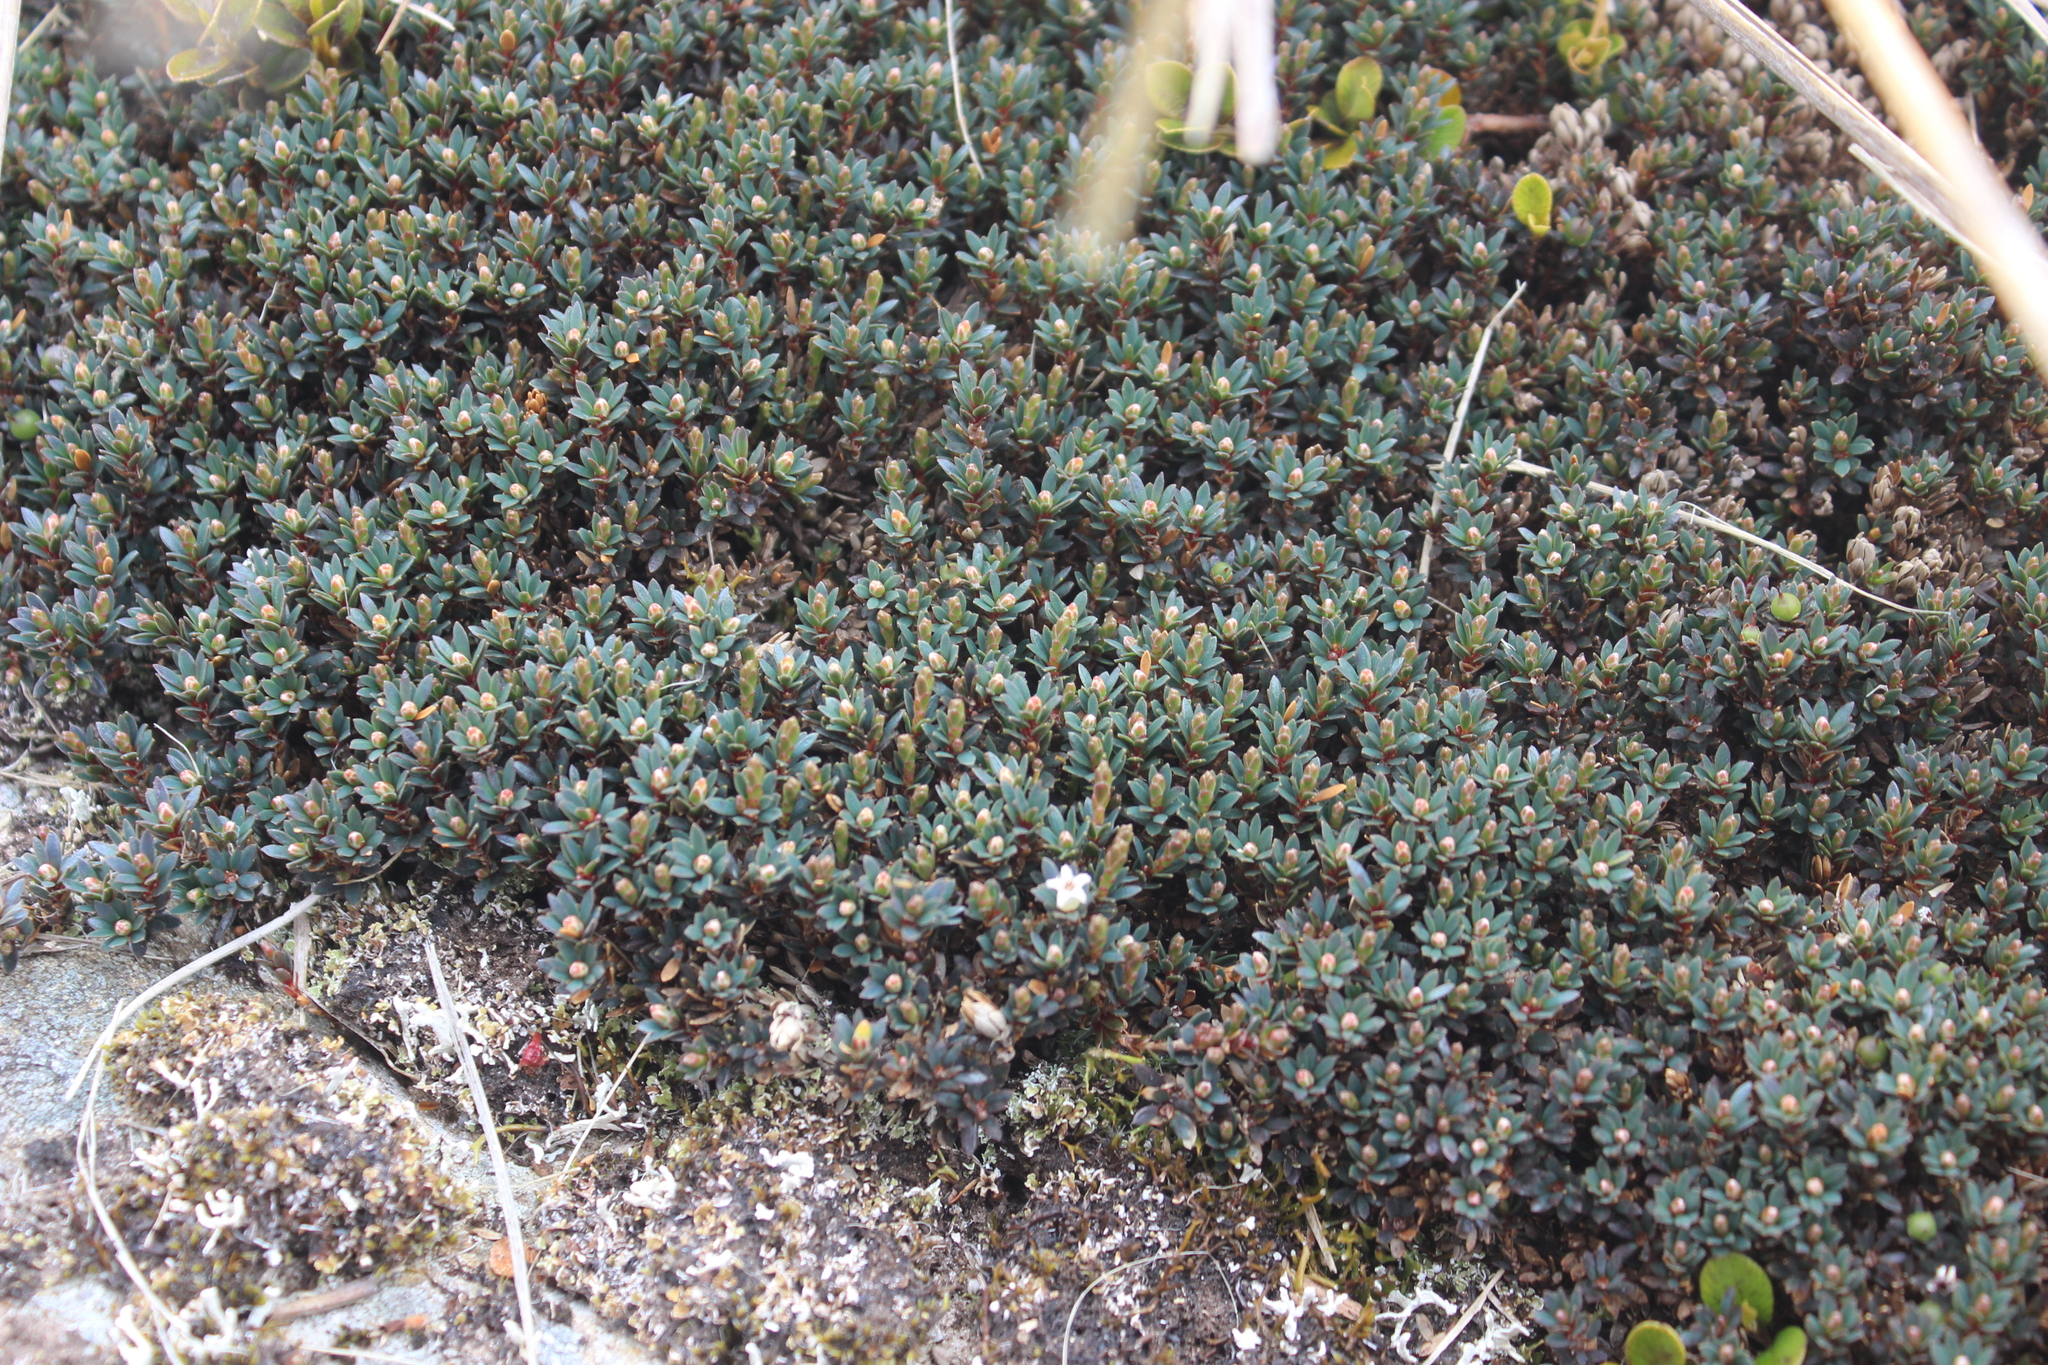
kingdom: Plantae
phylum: Tracheophyta
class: Magnoliopsida
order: Ericales
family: Ericaceae
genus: Pentachondra
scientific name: Pentachondra pumila
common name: Carpet-heath
